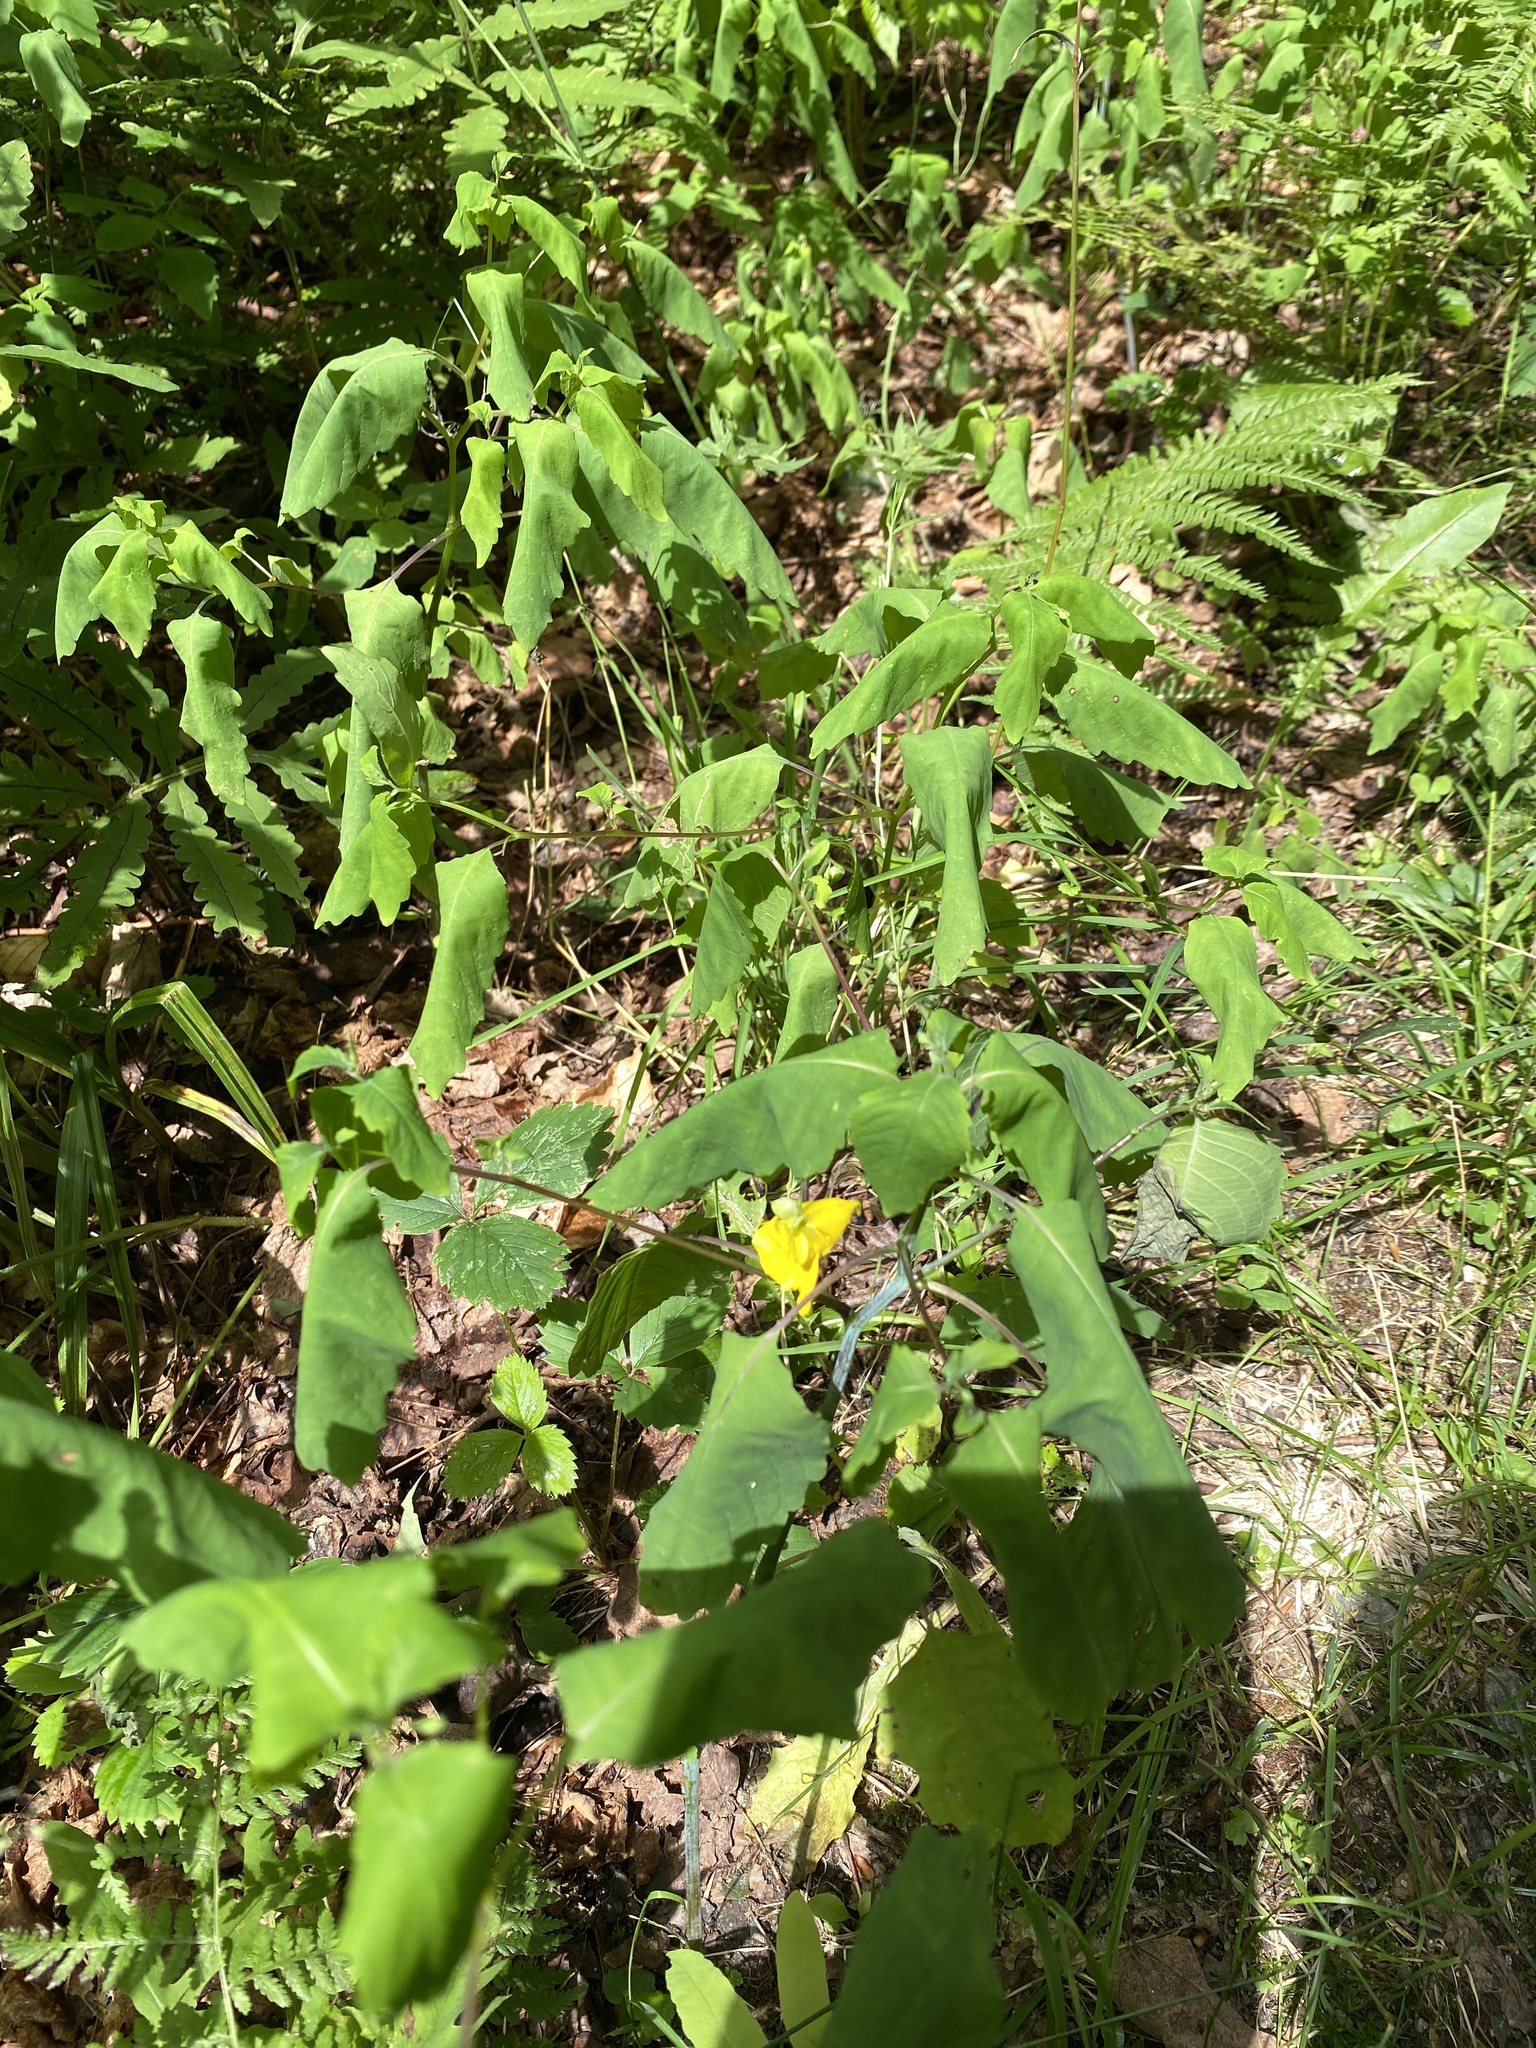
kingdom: Plantae
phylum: Tracheophyta
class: Magnoliopsida
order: Ericales
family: Balsaminaceae
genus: Impatiens
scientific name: Impatiens pallida
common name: Pale snapweed
